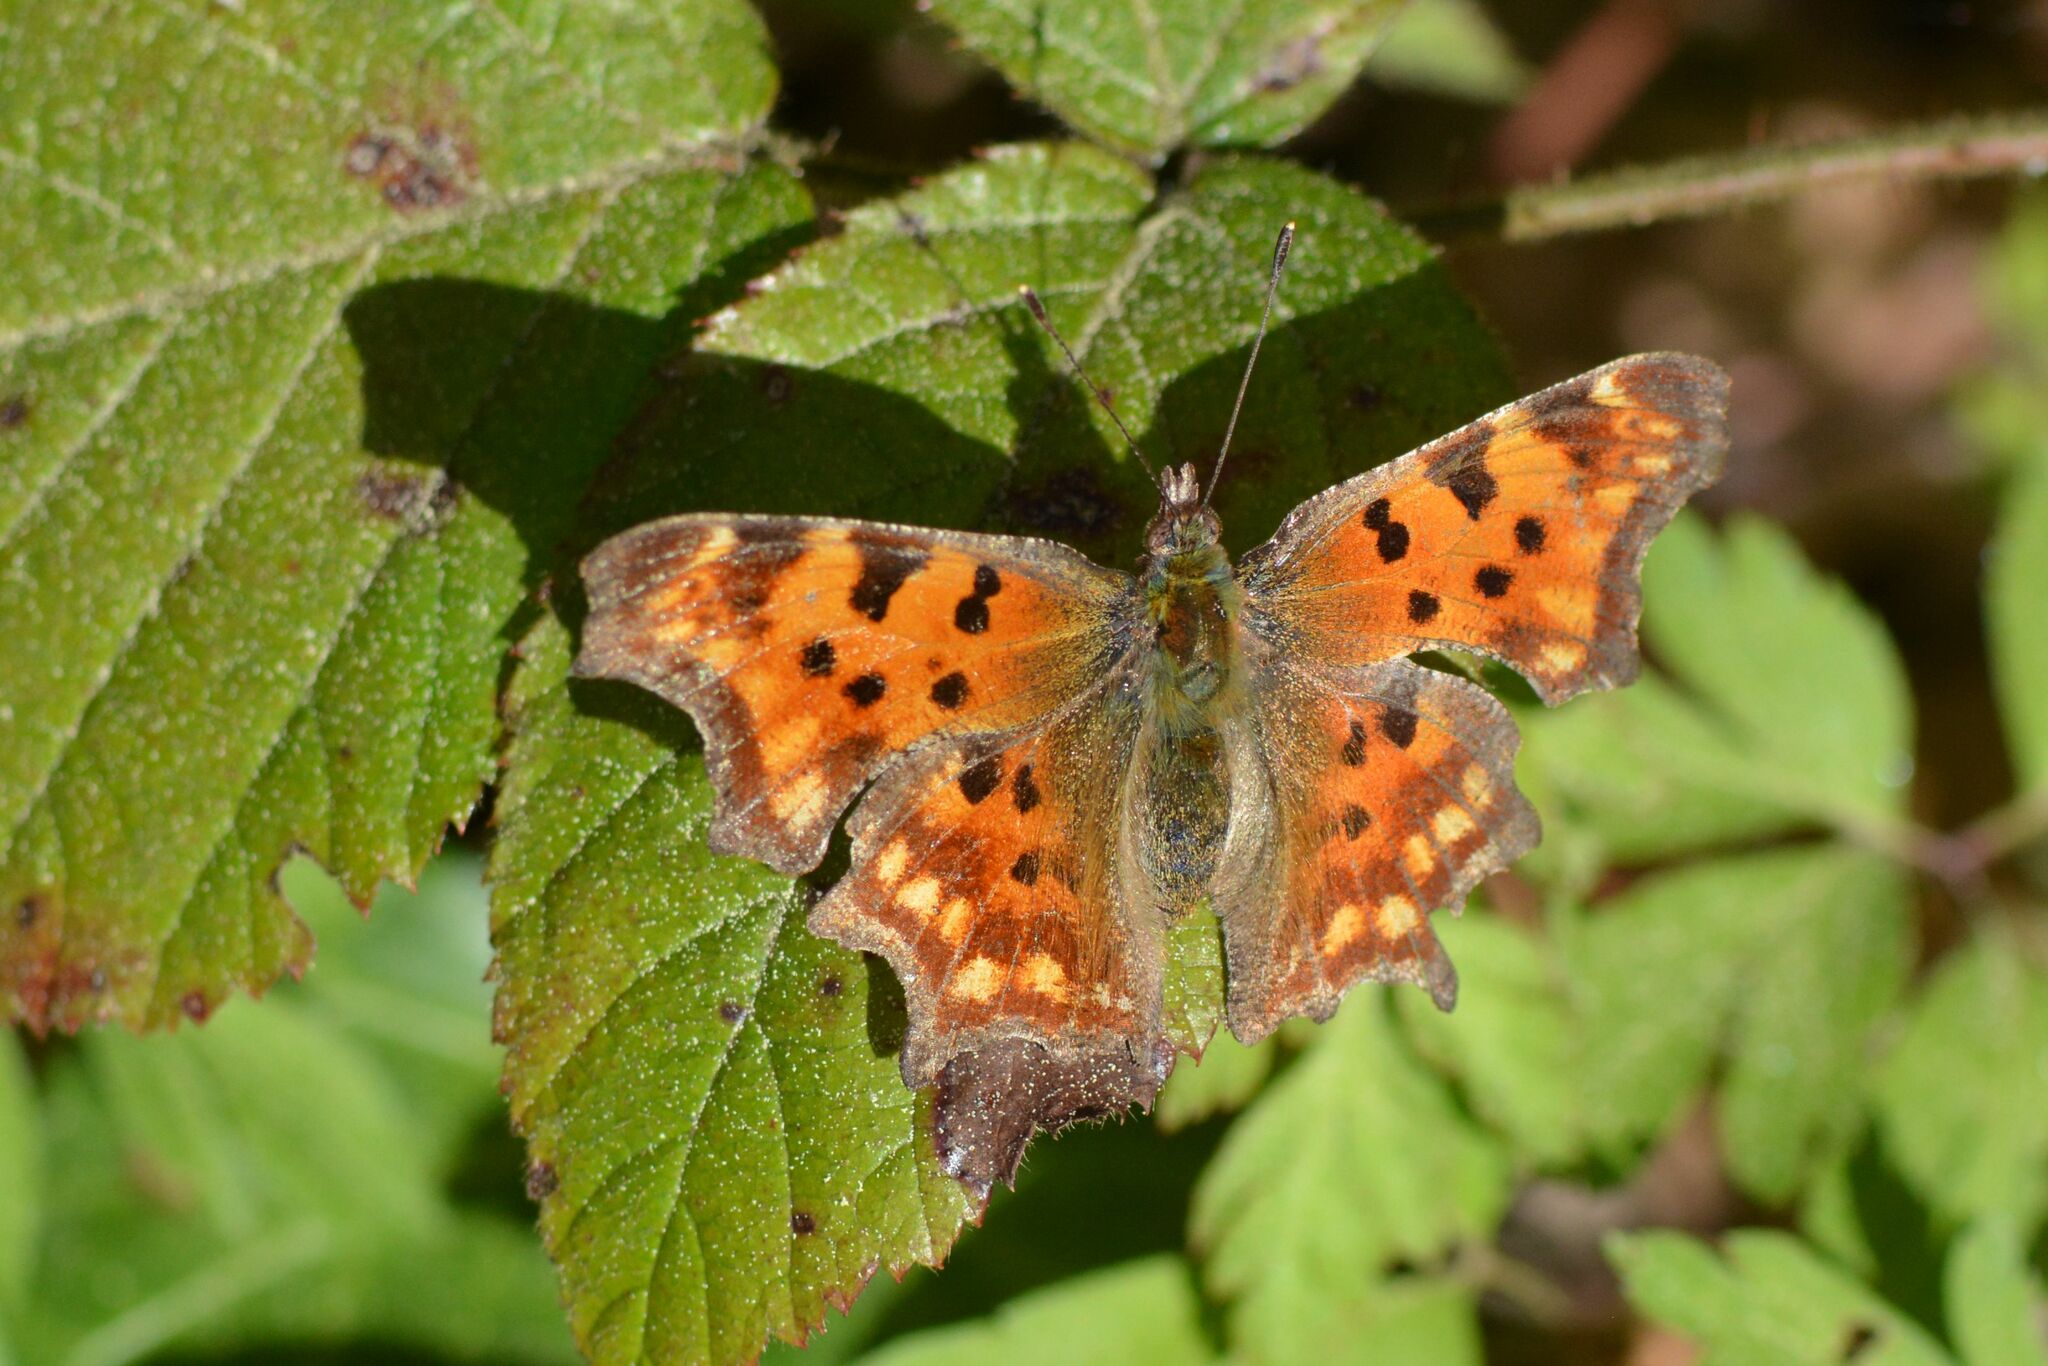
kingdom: Animalia
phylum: Arthropoda
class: Insecta
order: Lepidoptera
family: Nymphalidae
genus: Polygonia
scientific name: Polygonia c-album
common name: Comma
